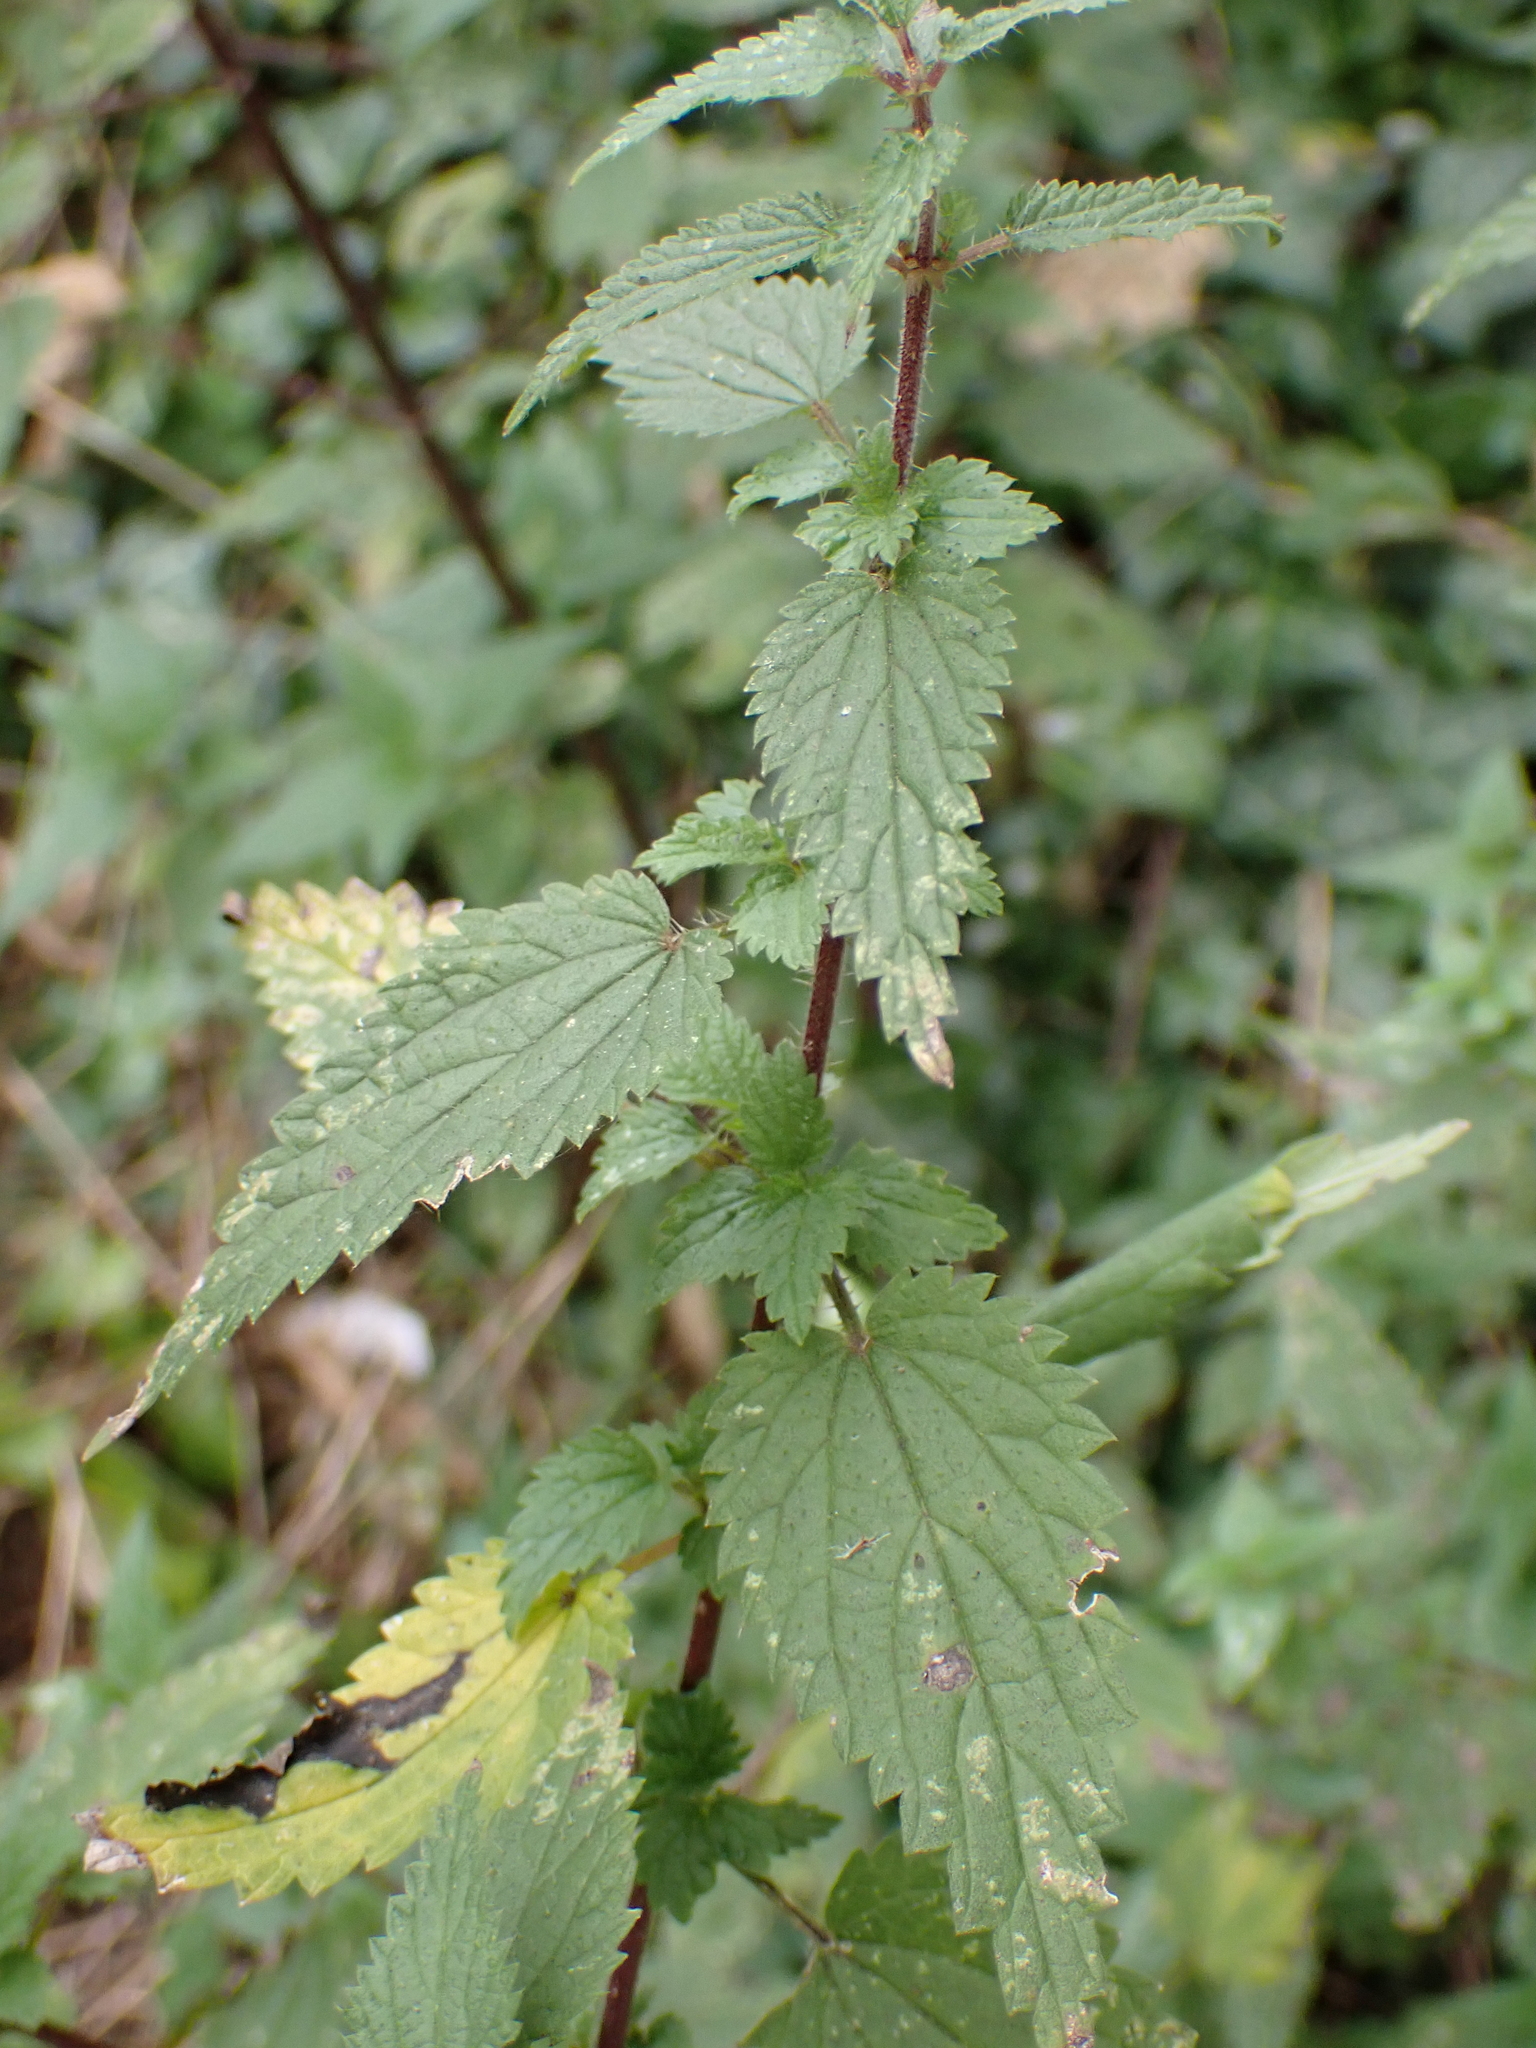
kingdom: Plantae
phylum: Tracheophyta
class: Magnoliopsida
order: Rosales
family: Urticaceae
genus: Urtica
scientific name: Urtica dioica
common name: Common nettle
